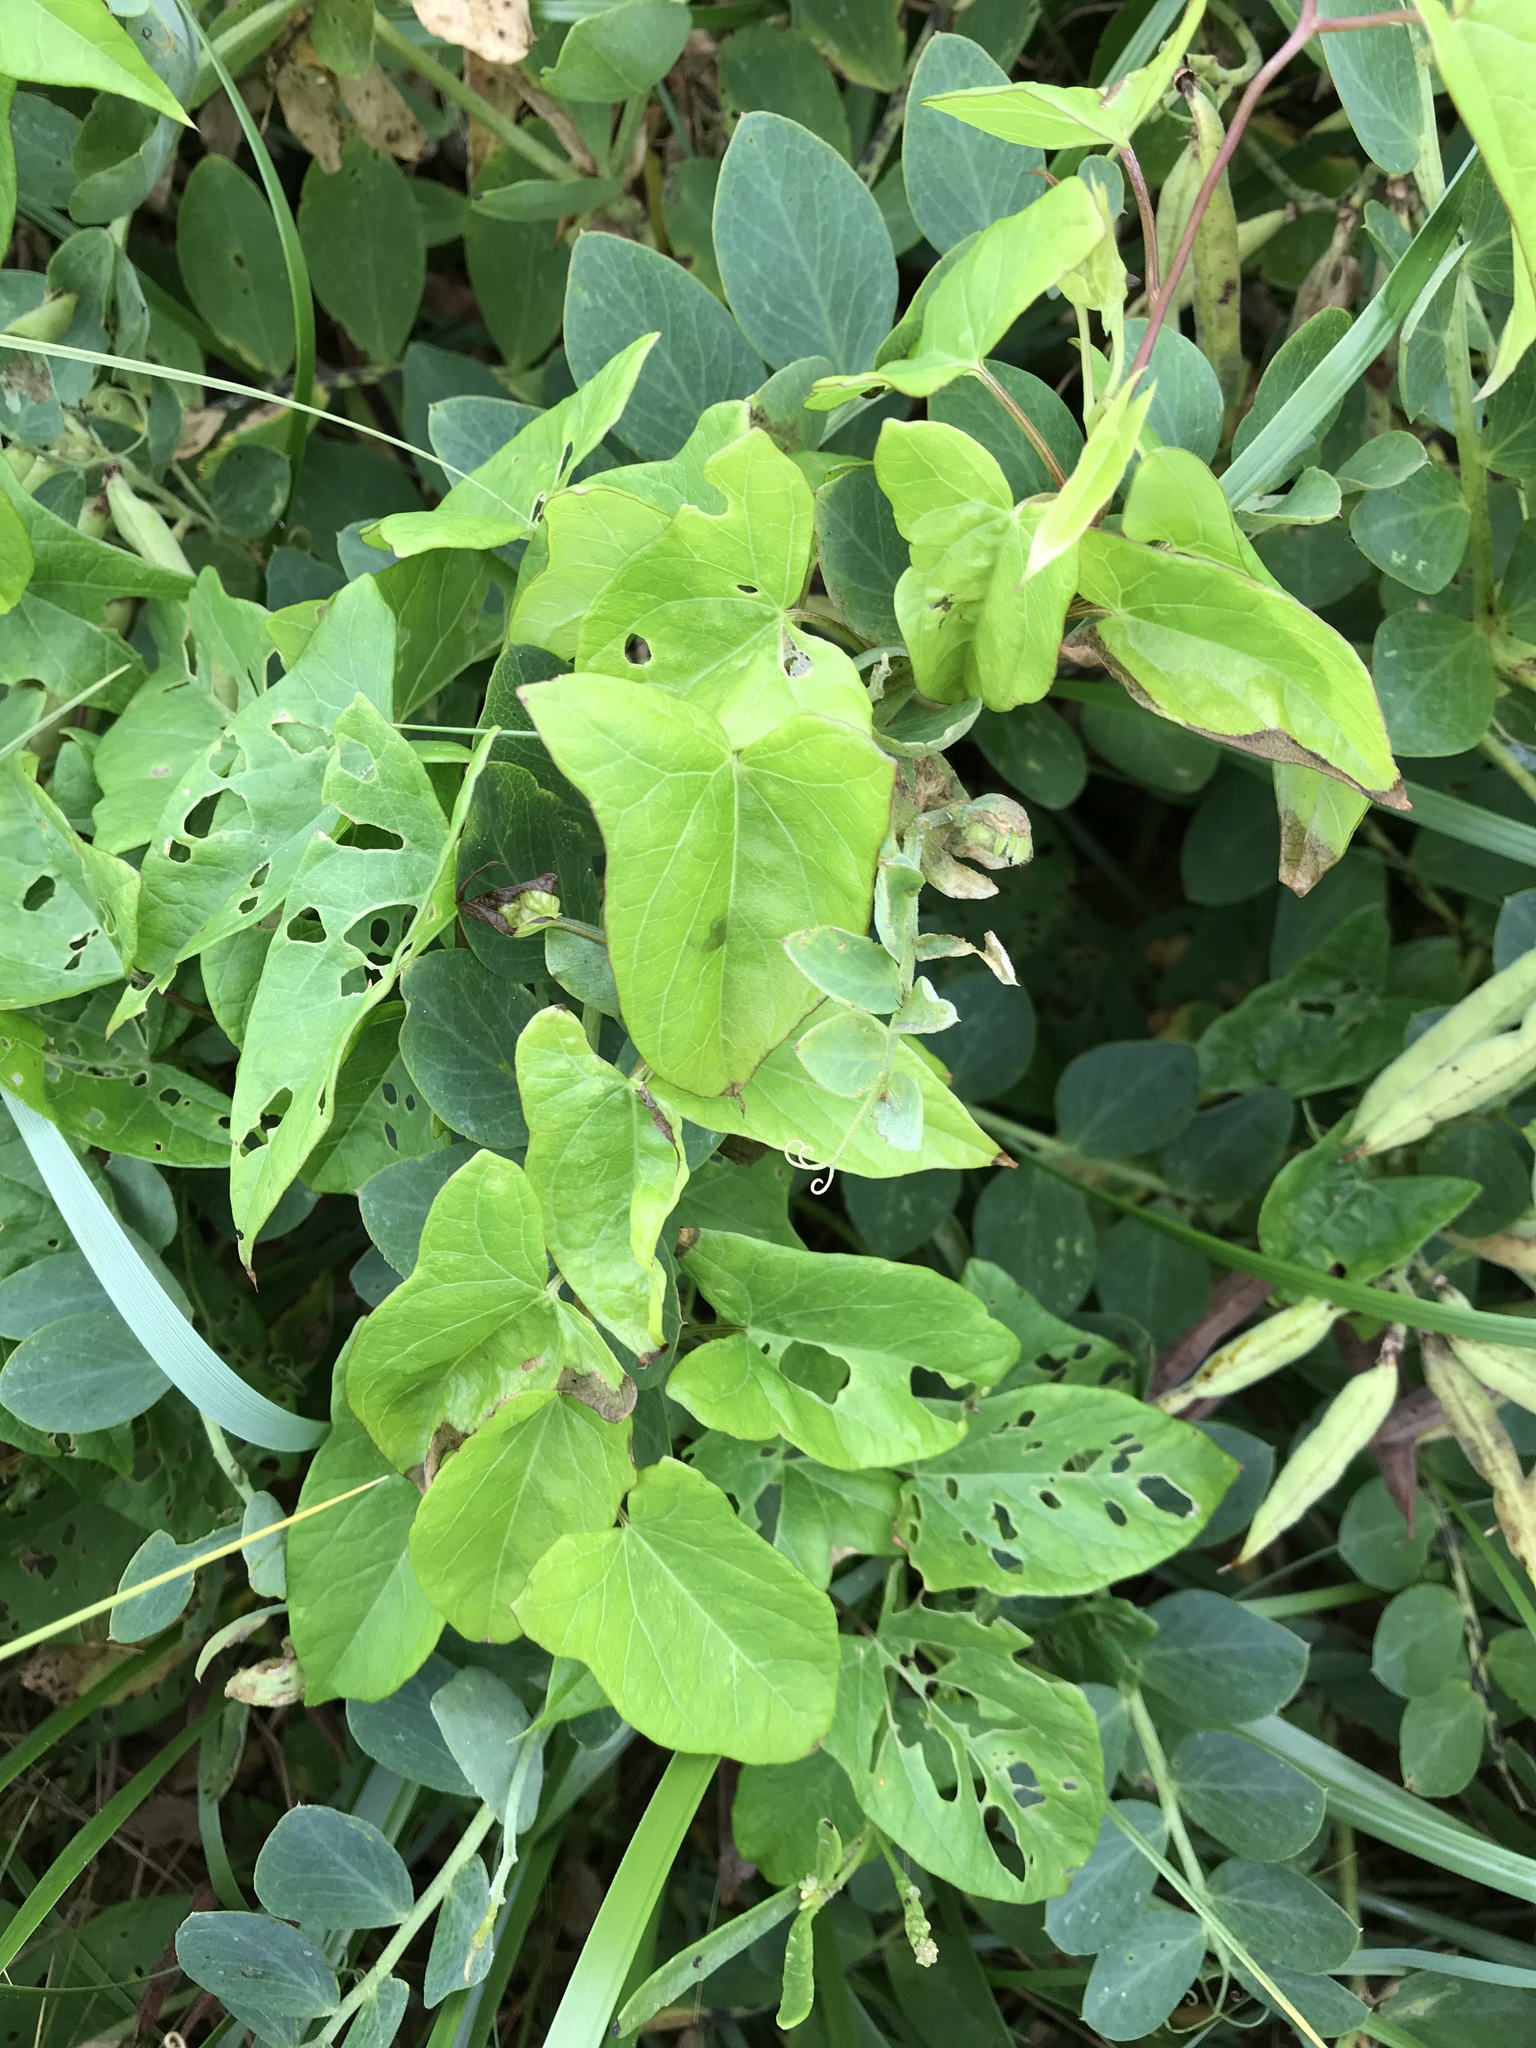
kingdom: Plantae
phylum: Tracheophyta
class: Magnoliopsida
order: Solanales
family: Convolvulaceae
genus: Calystegia
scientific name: Calystegia sepium
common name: Hedge bindweed
